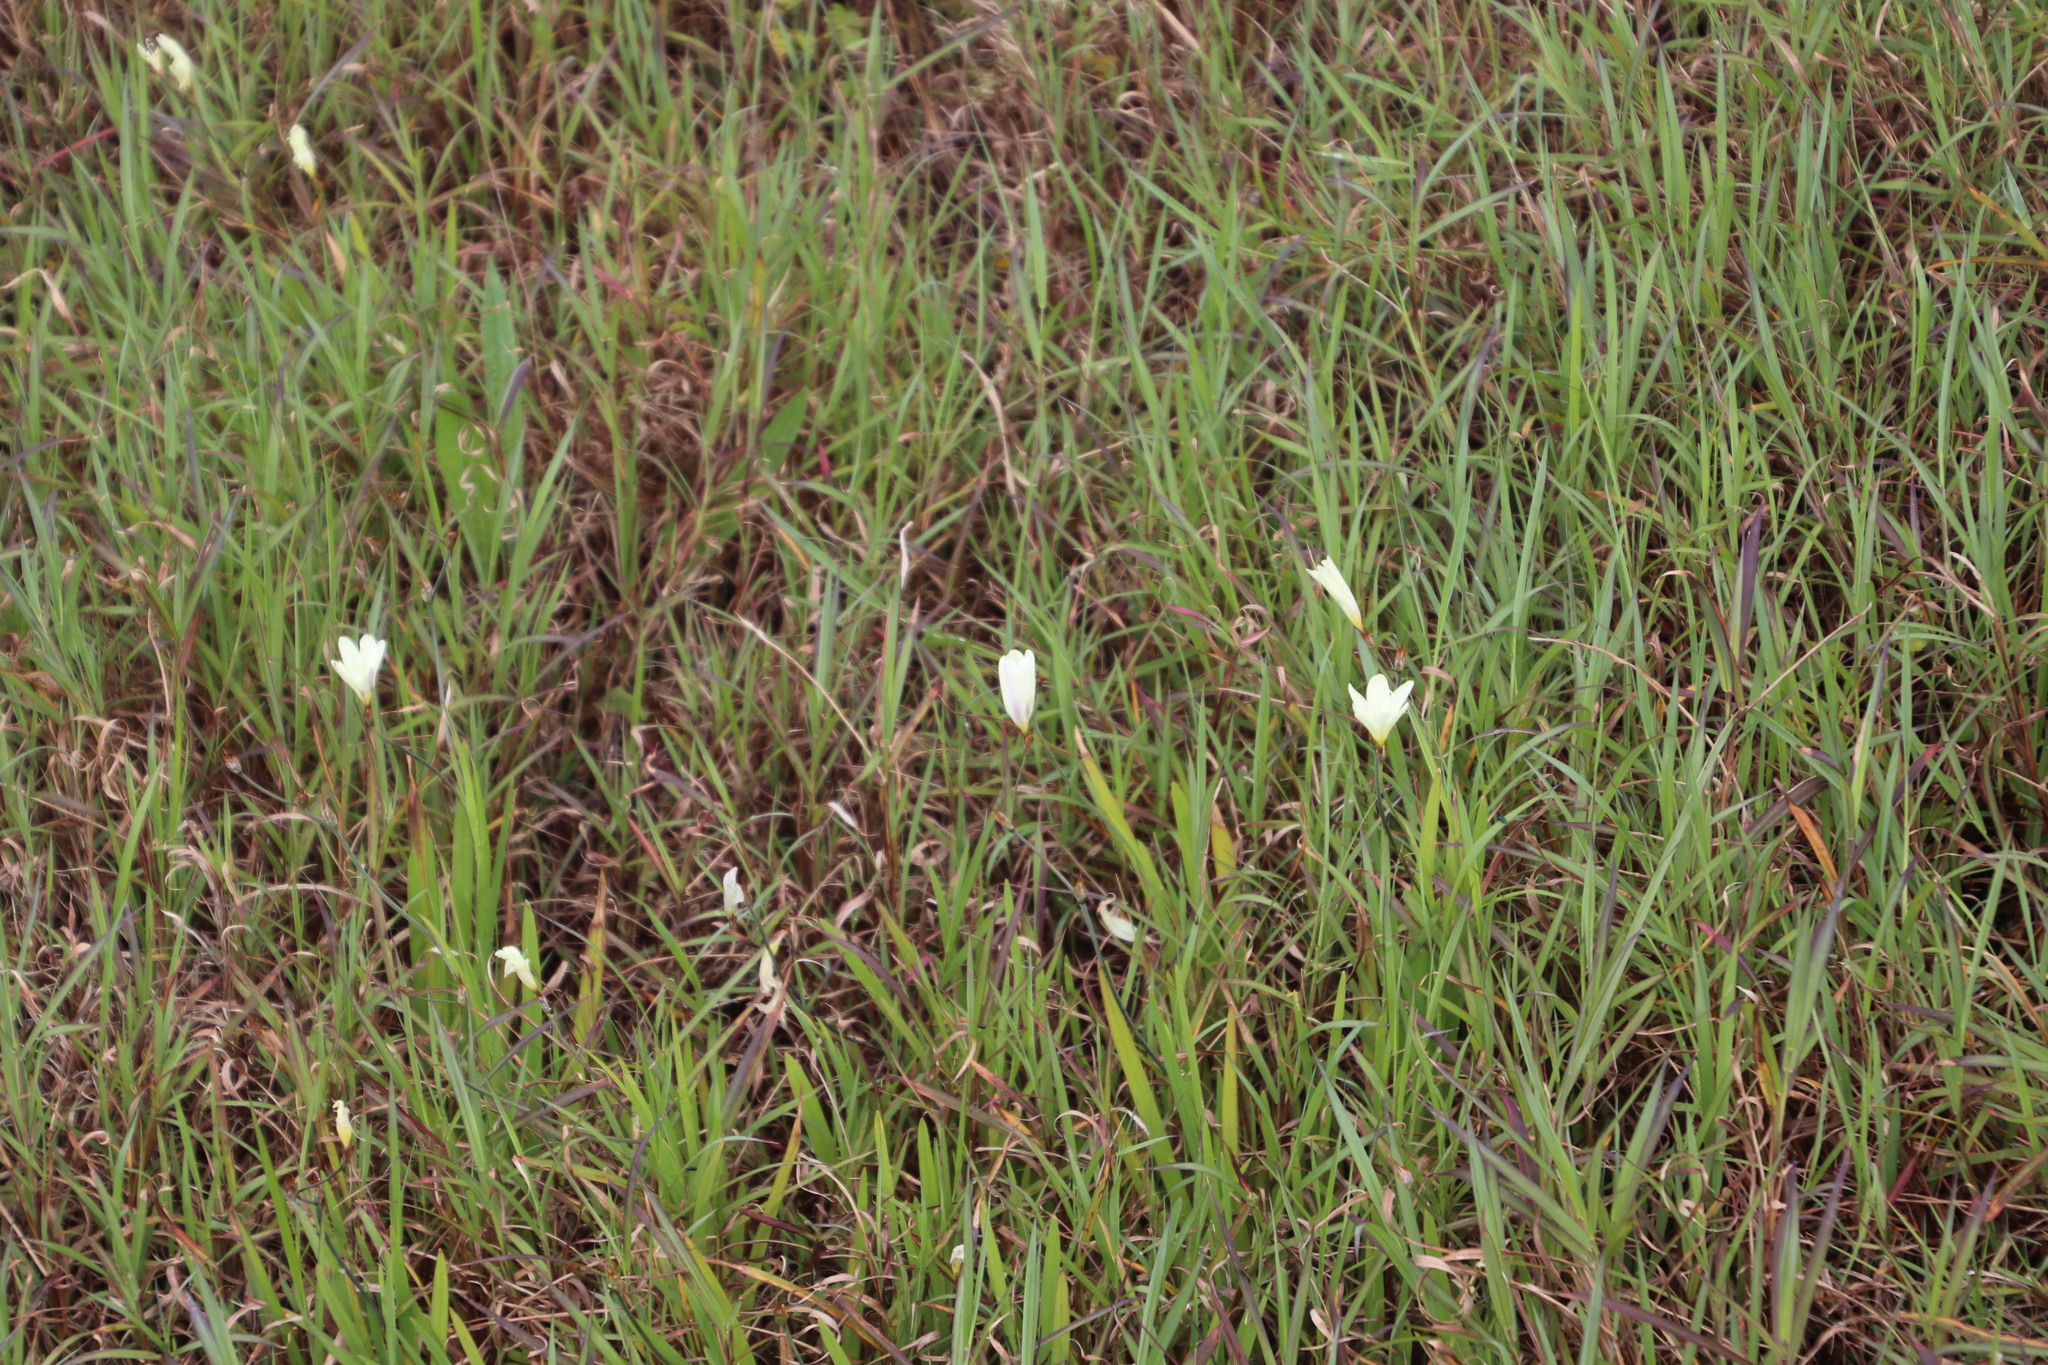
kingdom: Plantae
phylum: Tracheophyta
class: Liliopsida
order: Asparagales
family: Iridaceae
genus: Sparaxis
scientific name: Sparaxis bulbifera
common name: Harlequin-flower
